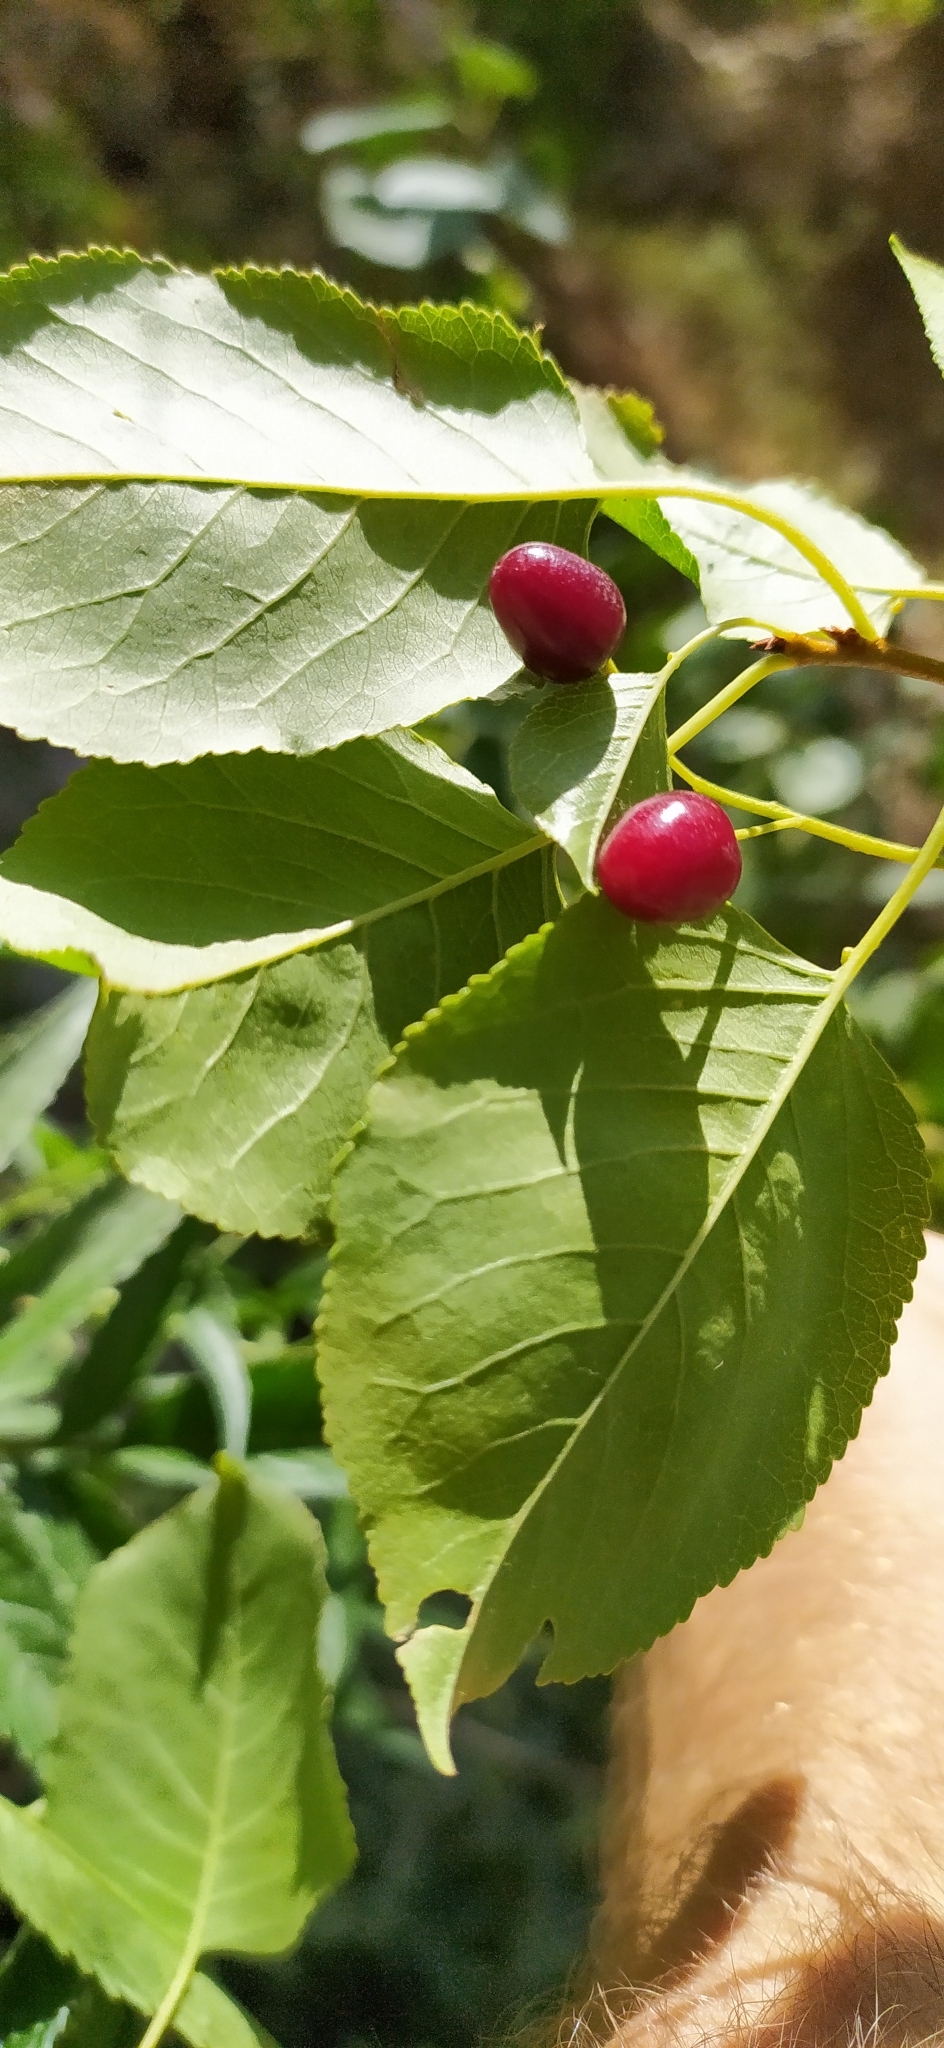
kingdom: Plantae
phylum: Tracheophyta
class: Magnoliopsida
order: Rosales
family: Rosaceae
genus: Prunus
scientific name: Prunus mahaleb
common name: Mahaleb cherry
